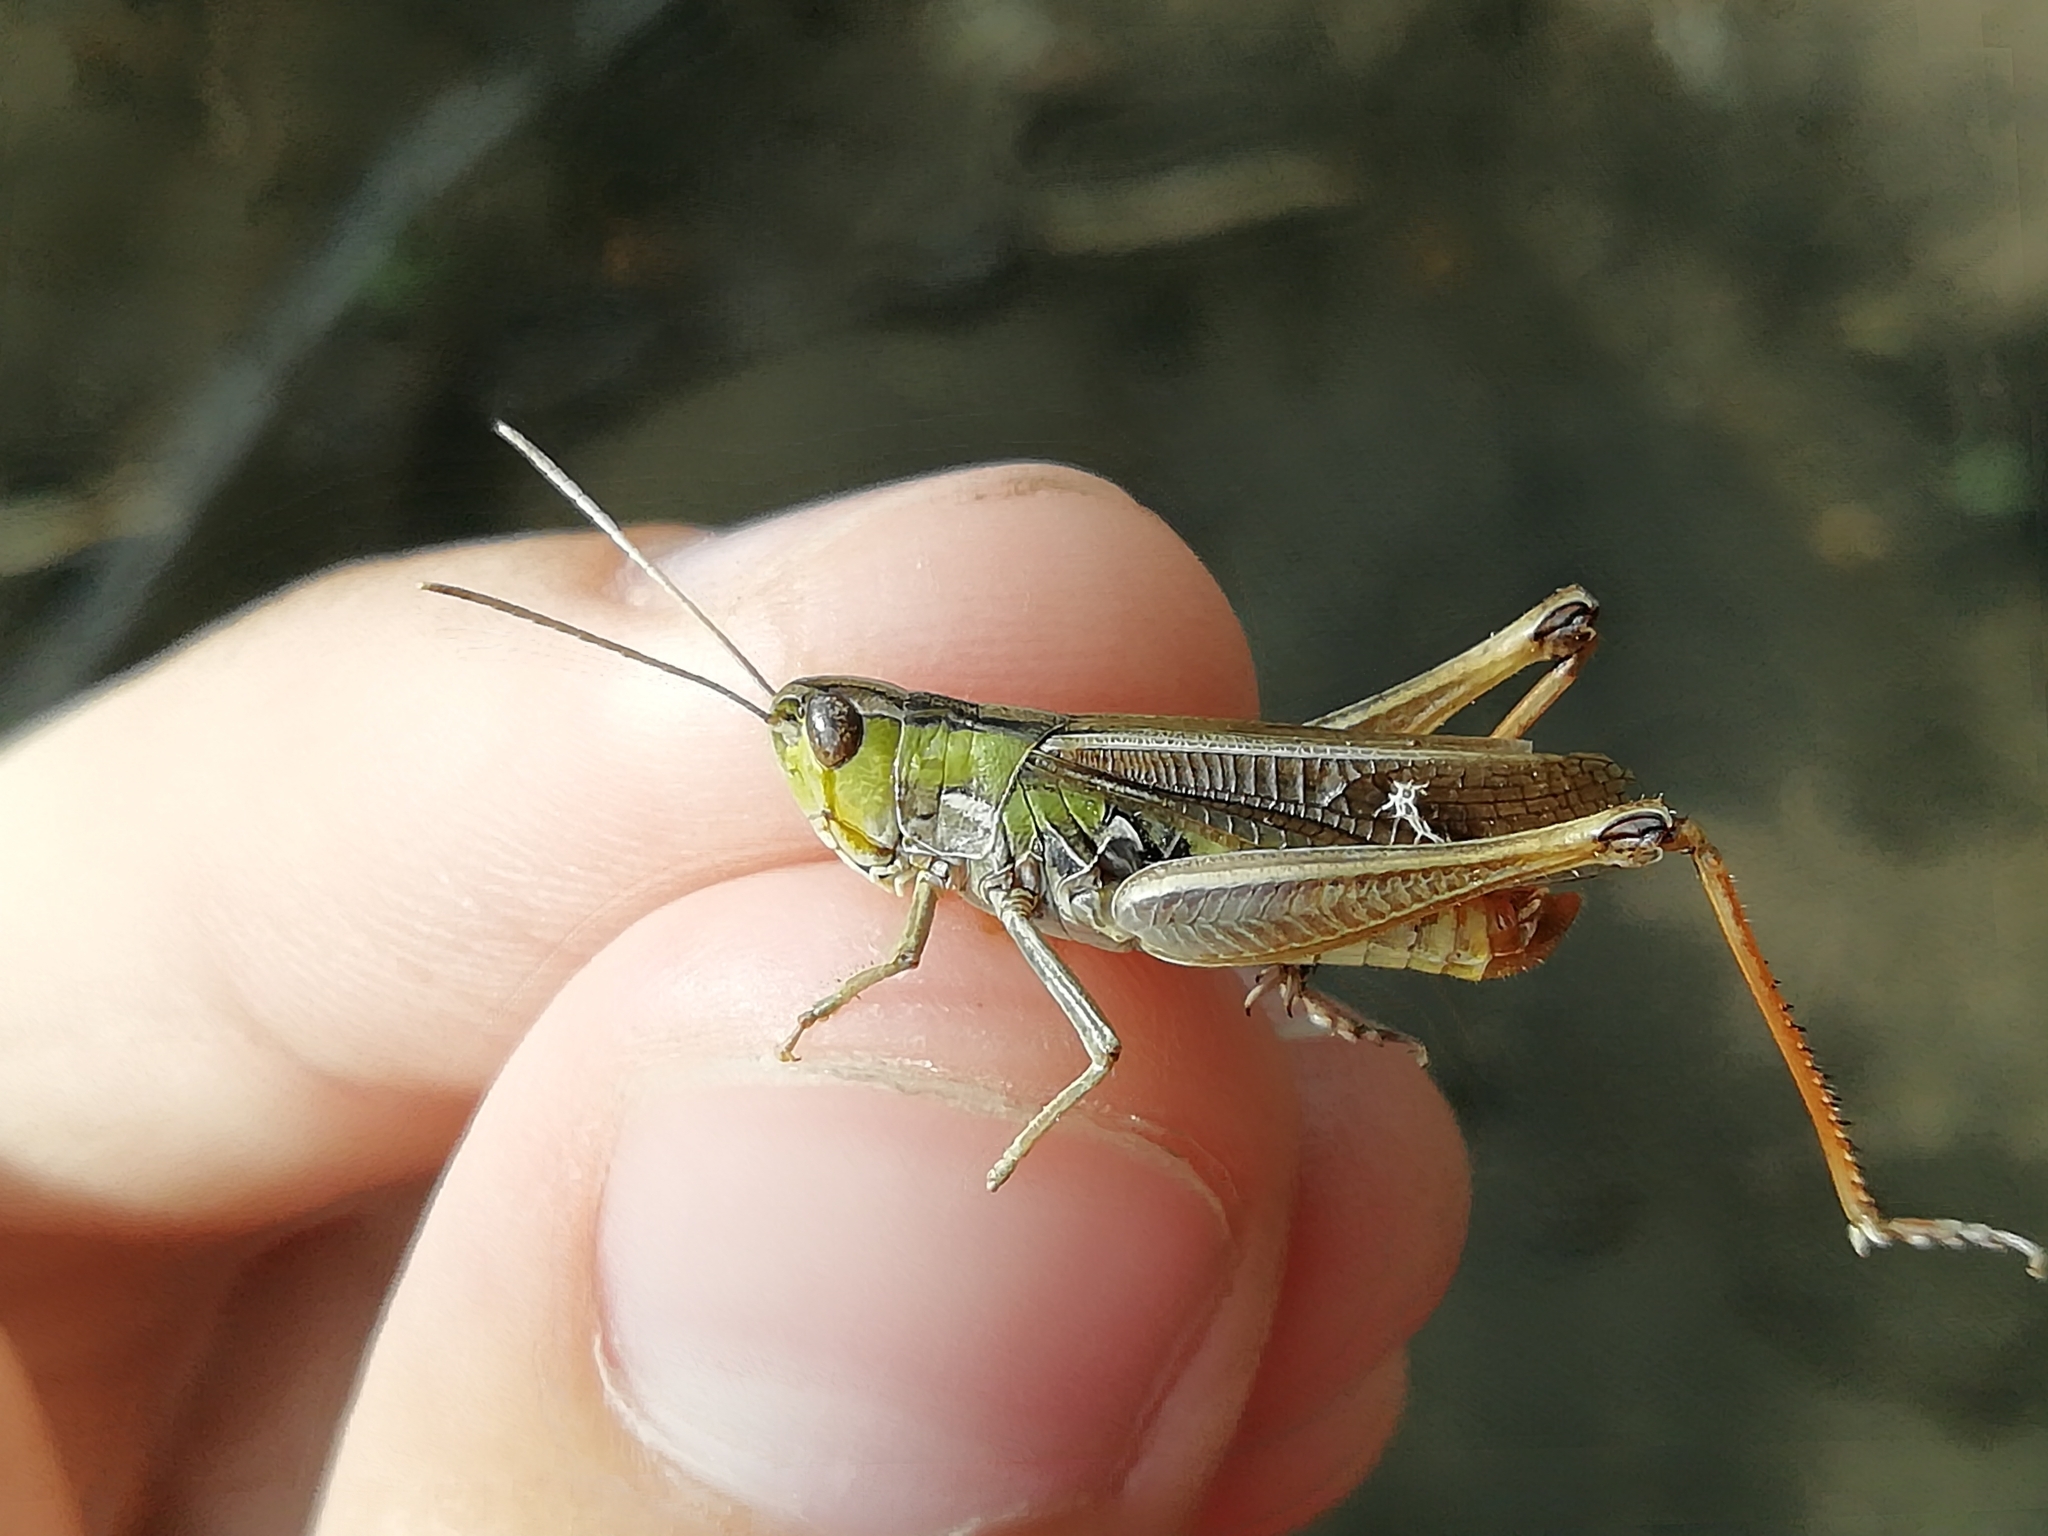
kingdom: Animalia
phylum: Arthropoda
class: Insecta
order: Orthoptera
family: Acrididae
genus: Stenobothrus
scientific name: Stenobothrus lineatus
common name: Stripe-winged grasshopper
